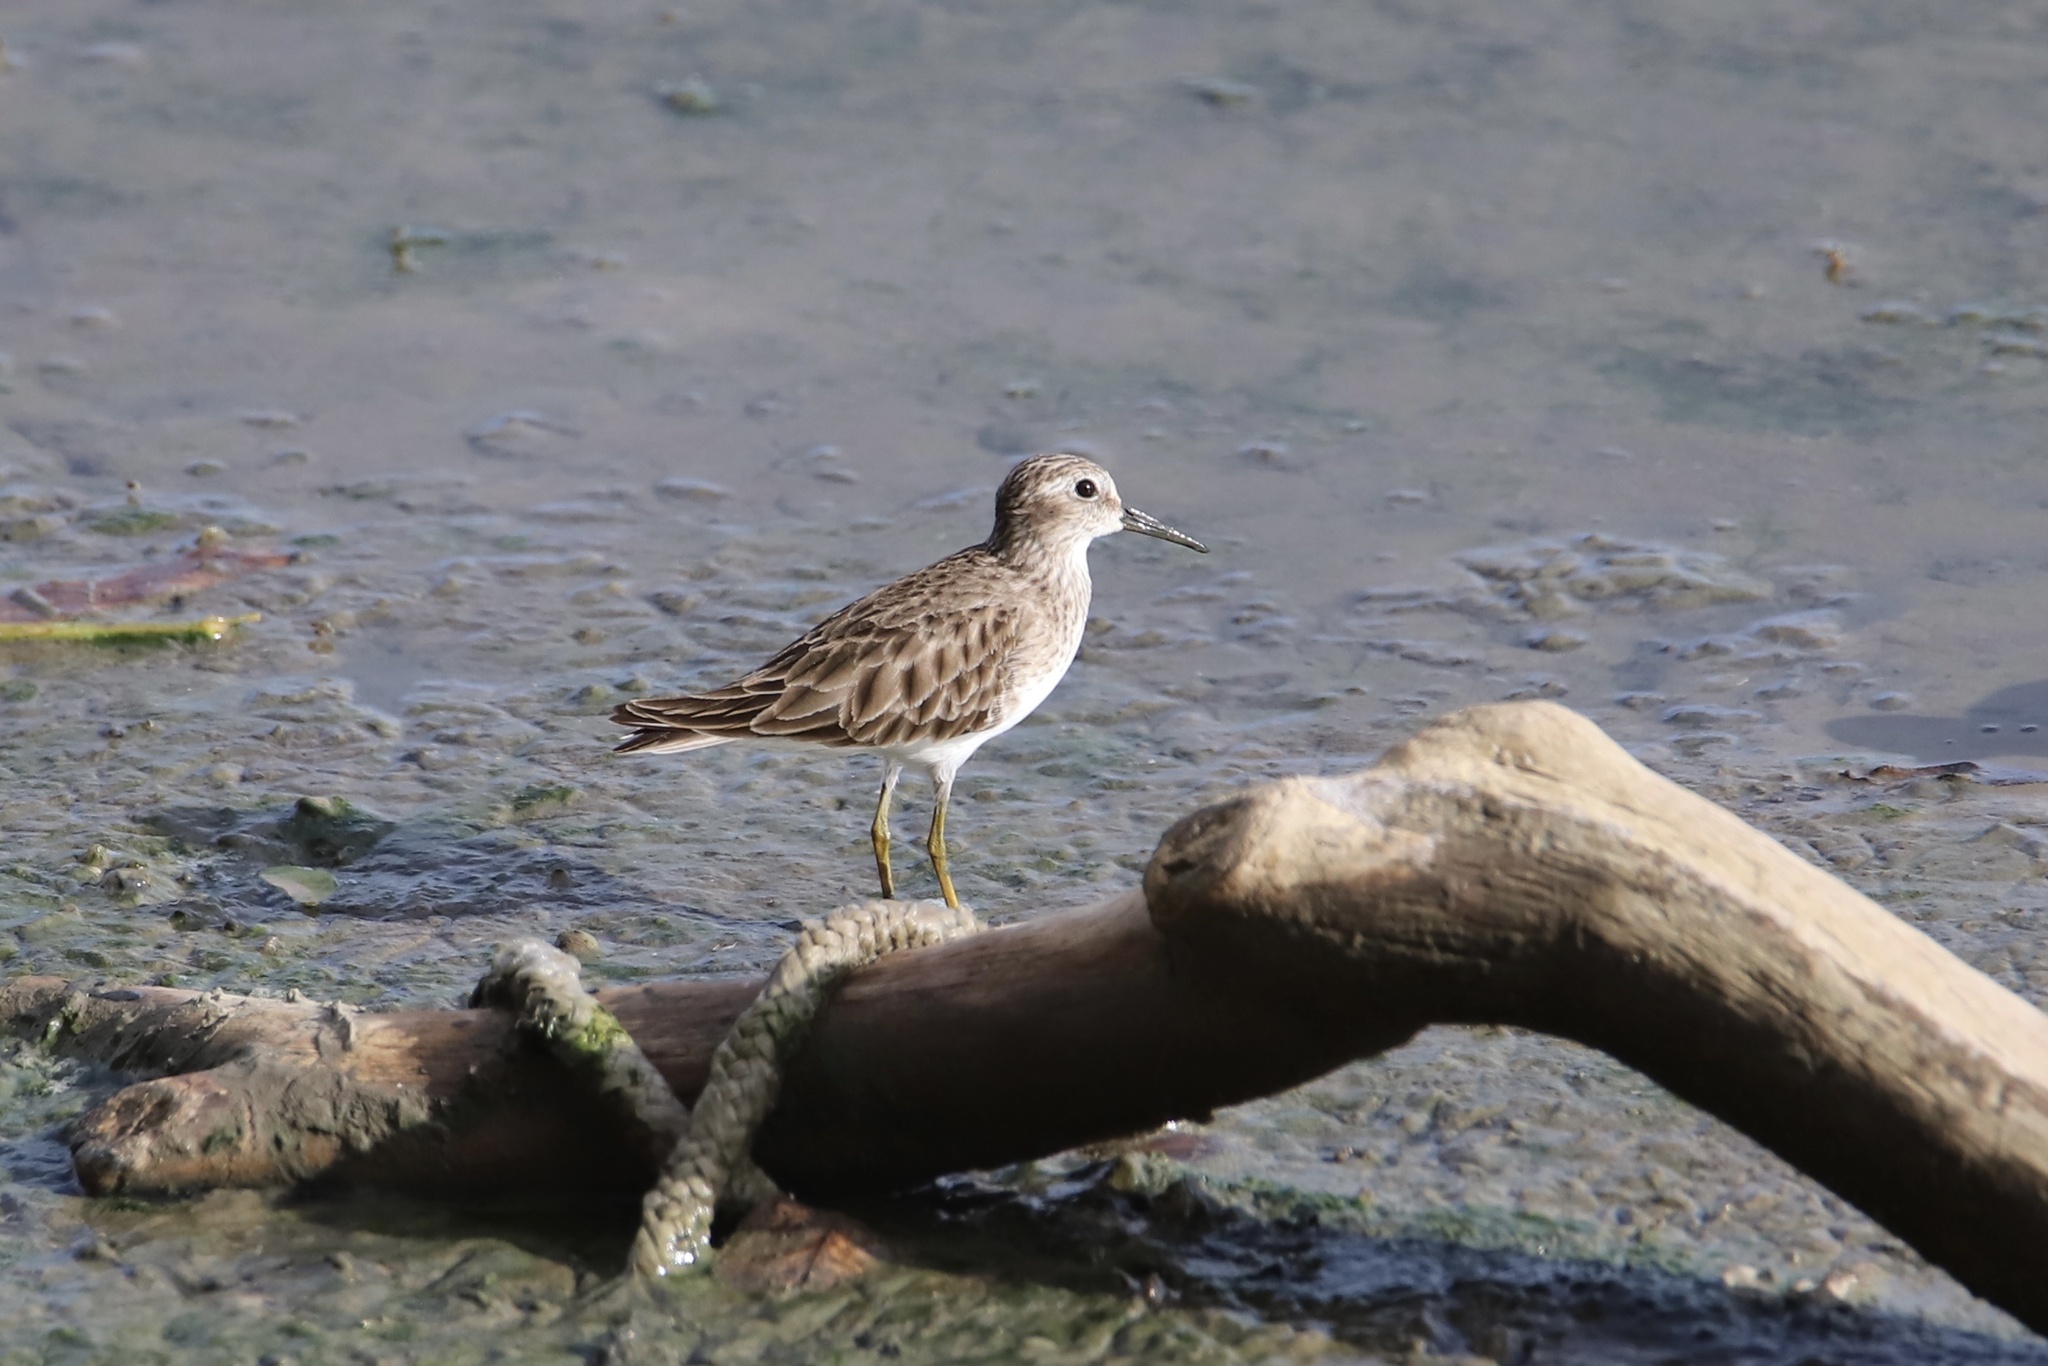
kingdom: Animalia
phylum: Chordata
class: Aves
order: Charadriiformes
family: Scolopacidae
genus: Calidris
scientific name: Calidris minutilla
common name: Least sandpiper
